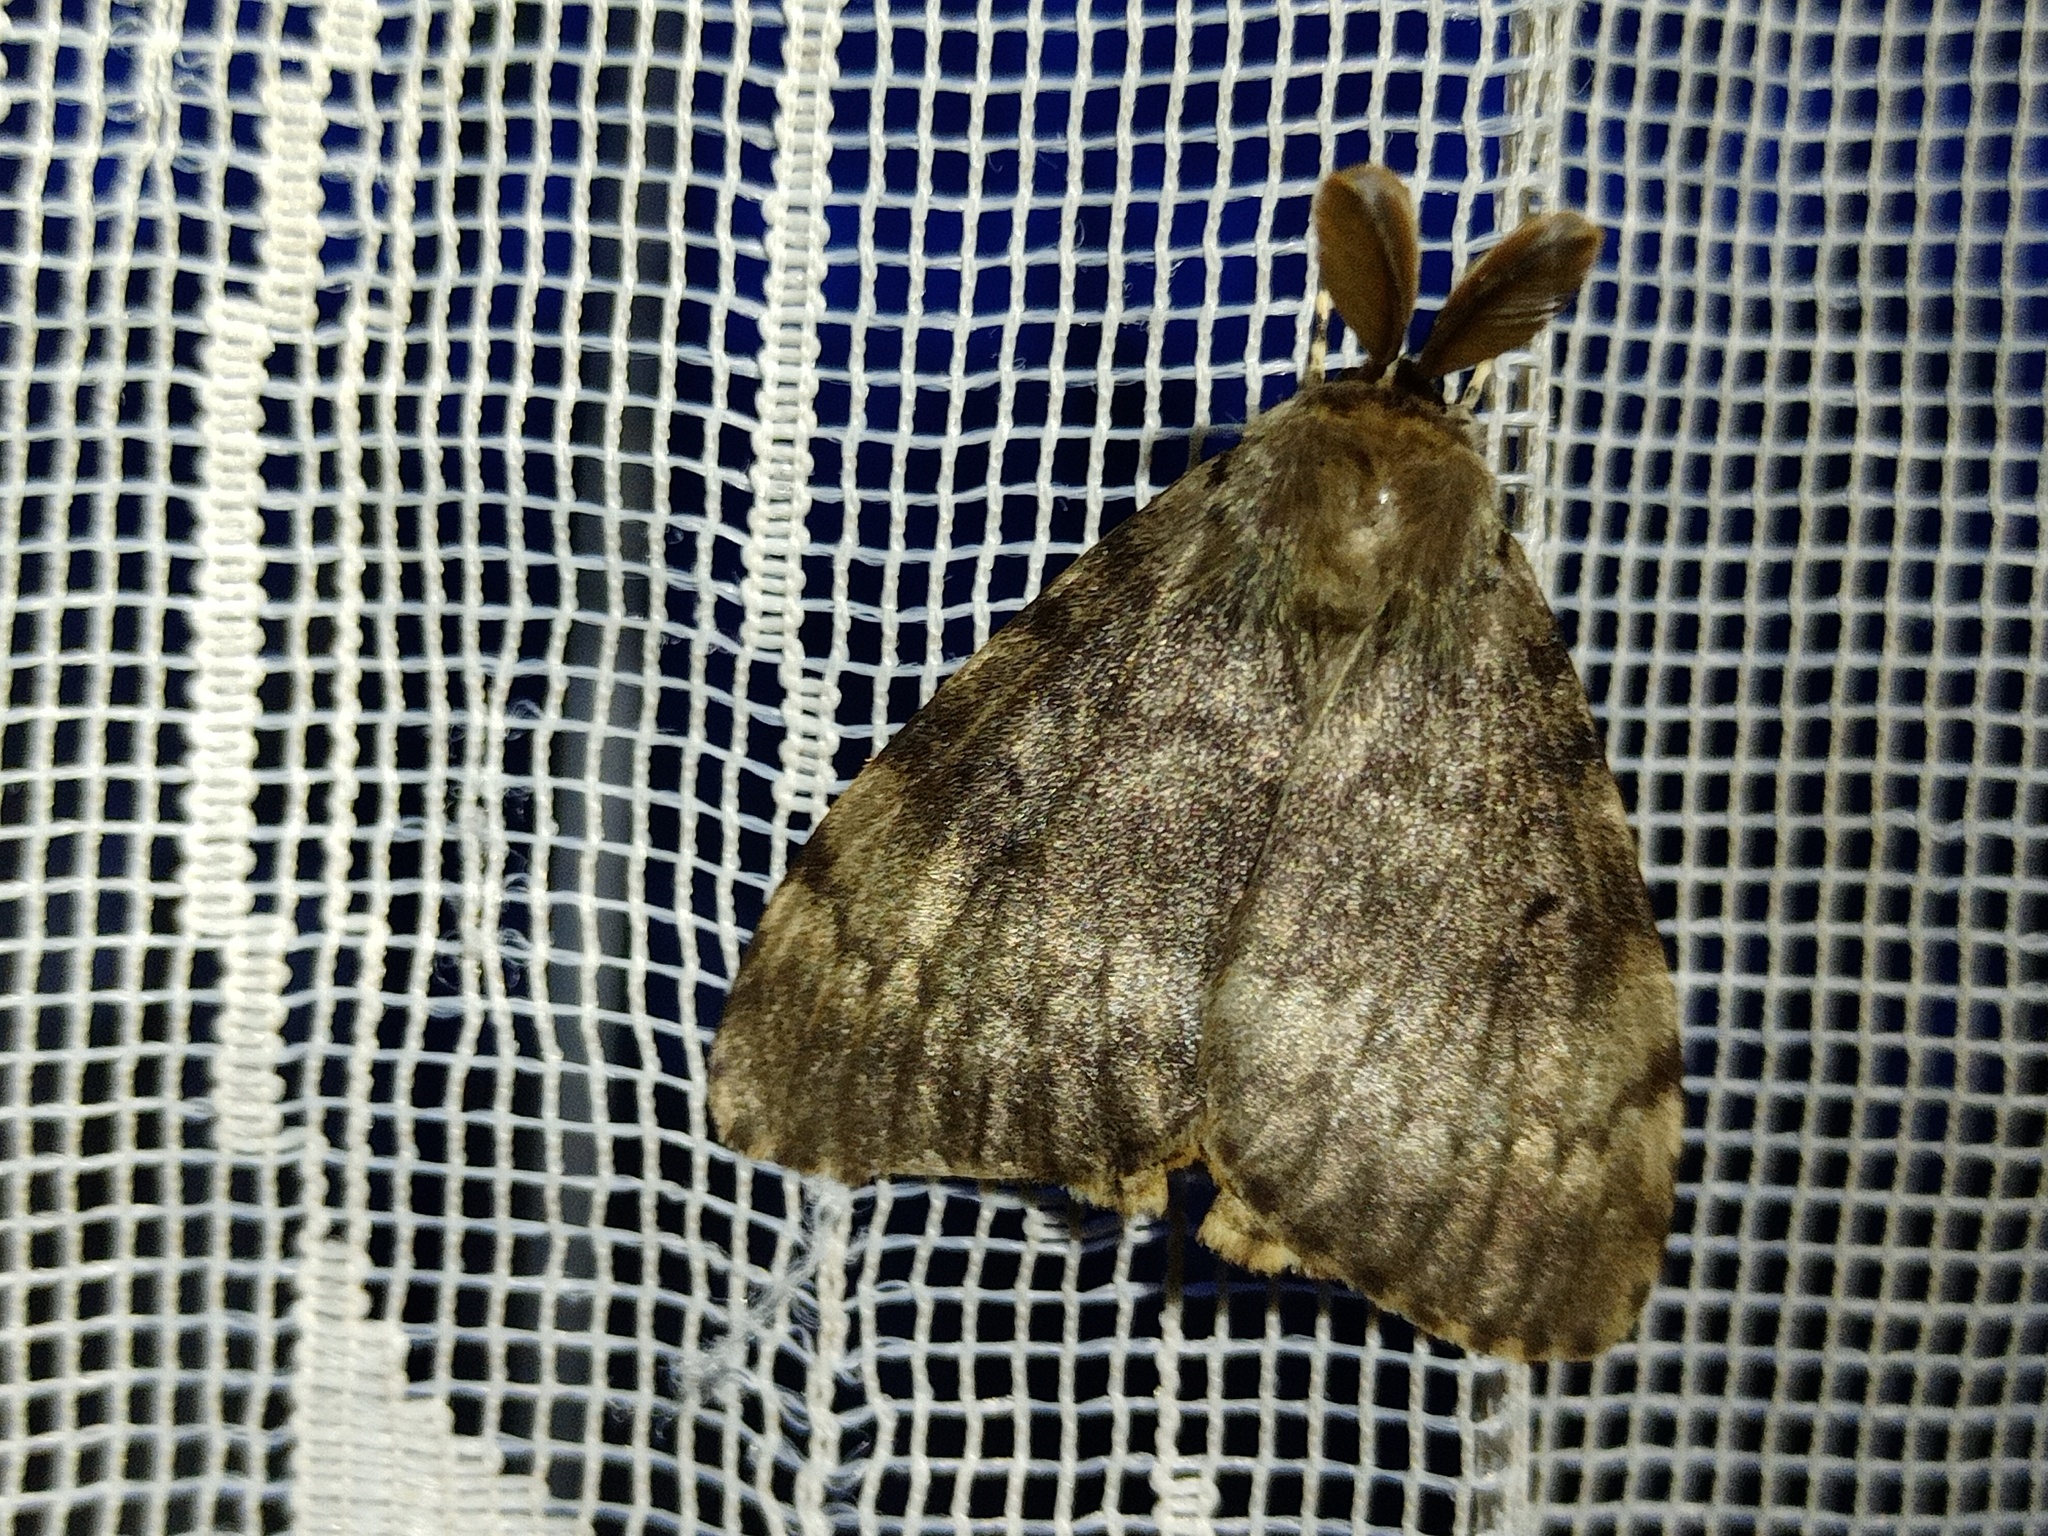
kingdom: Animalia
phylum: Arthropoda
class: Insecta
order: Lepidoptera
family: Erebidae
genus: Lymantria
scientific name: Lymantria dispar
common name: Gypsy moth
